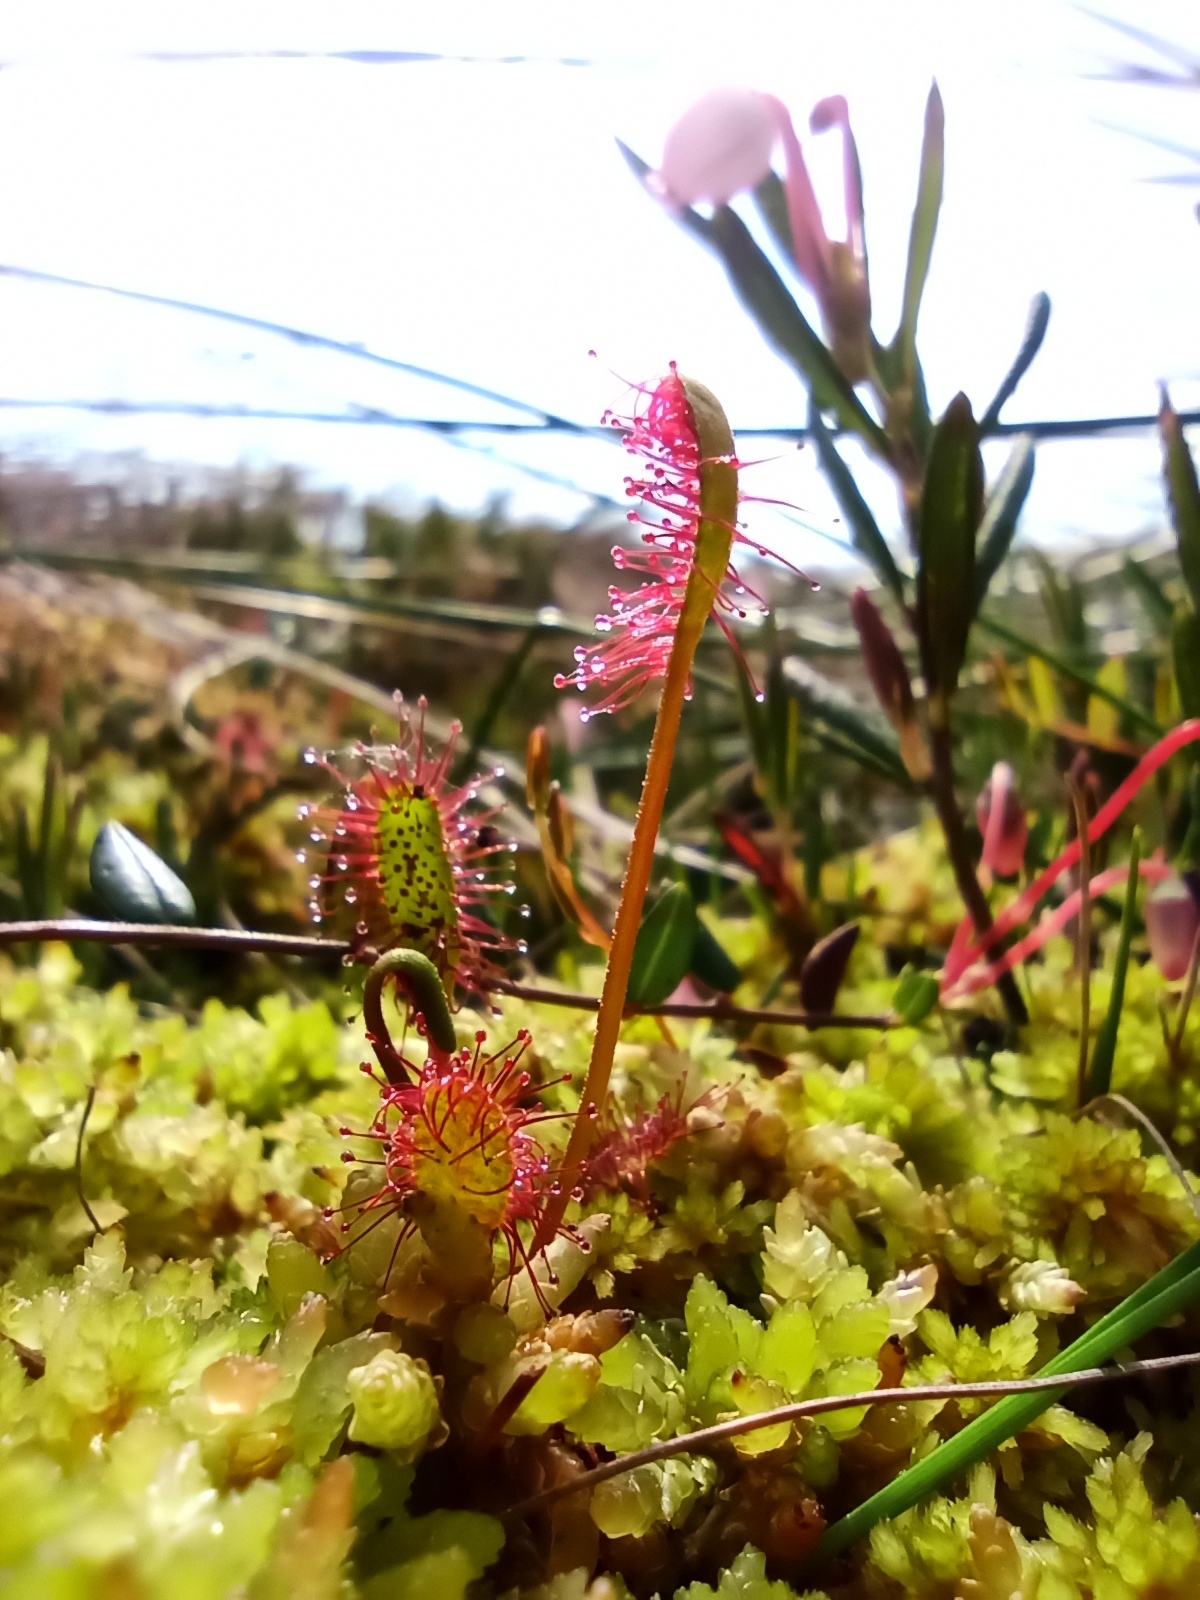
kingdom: Plantae
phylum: Tracheophyta
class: Magnoliopsida
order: Caryophyllales
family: Droseraceae
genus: Drosera
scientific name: Drosera anglica
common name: Great sundew
